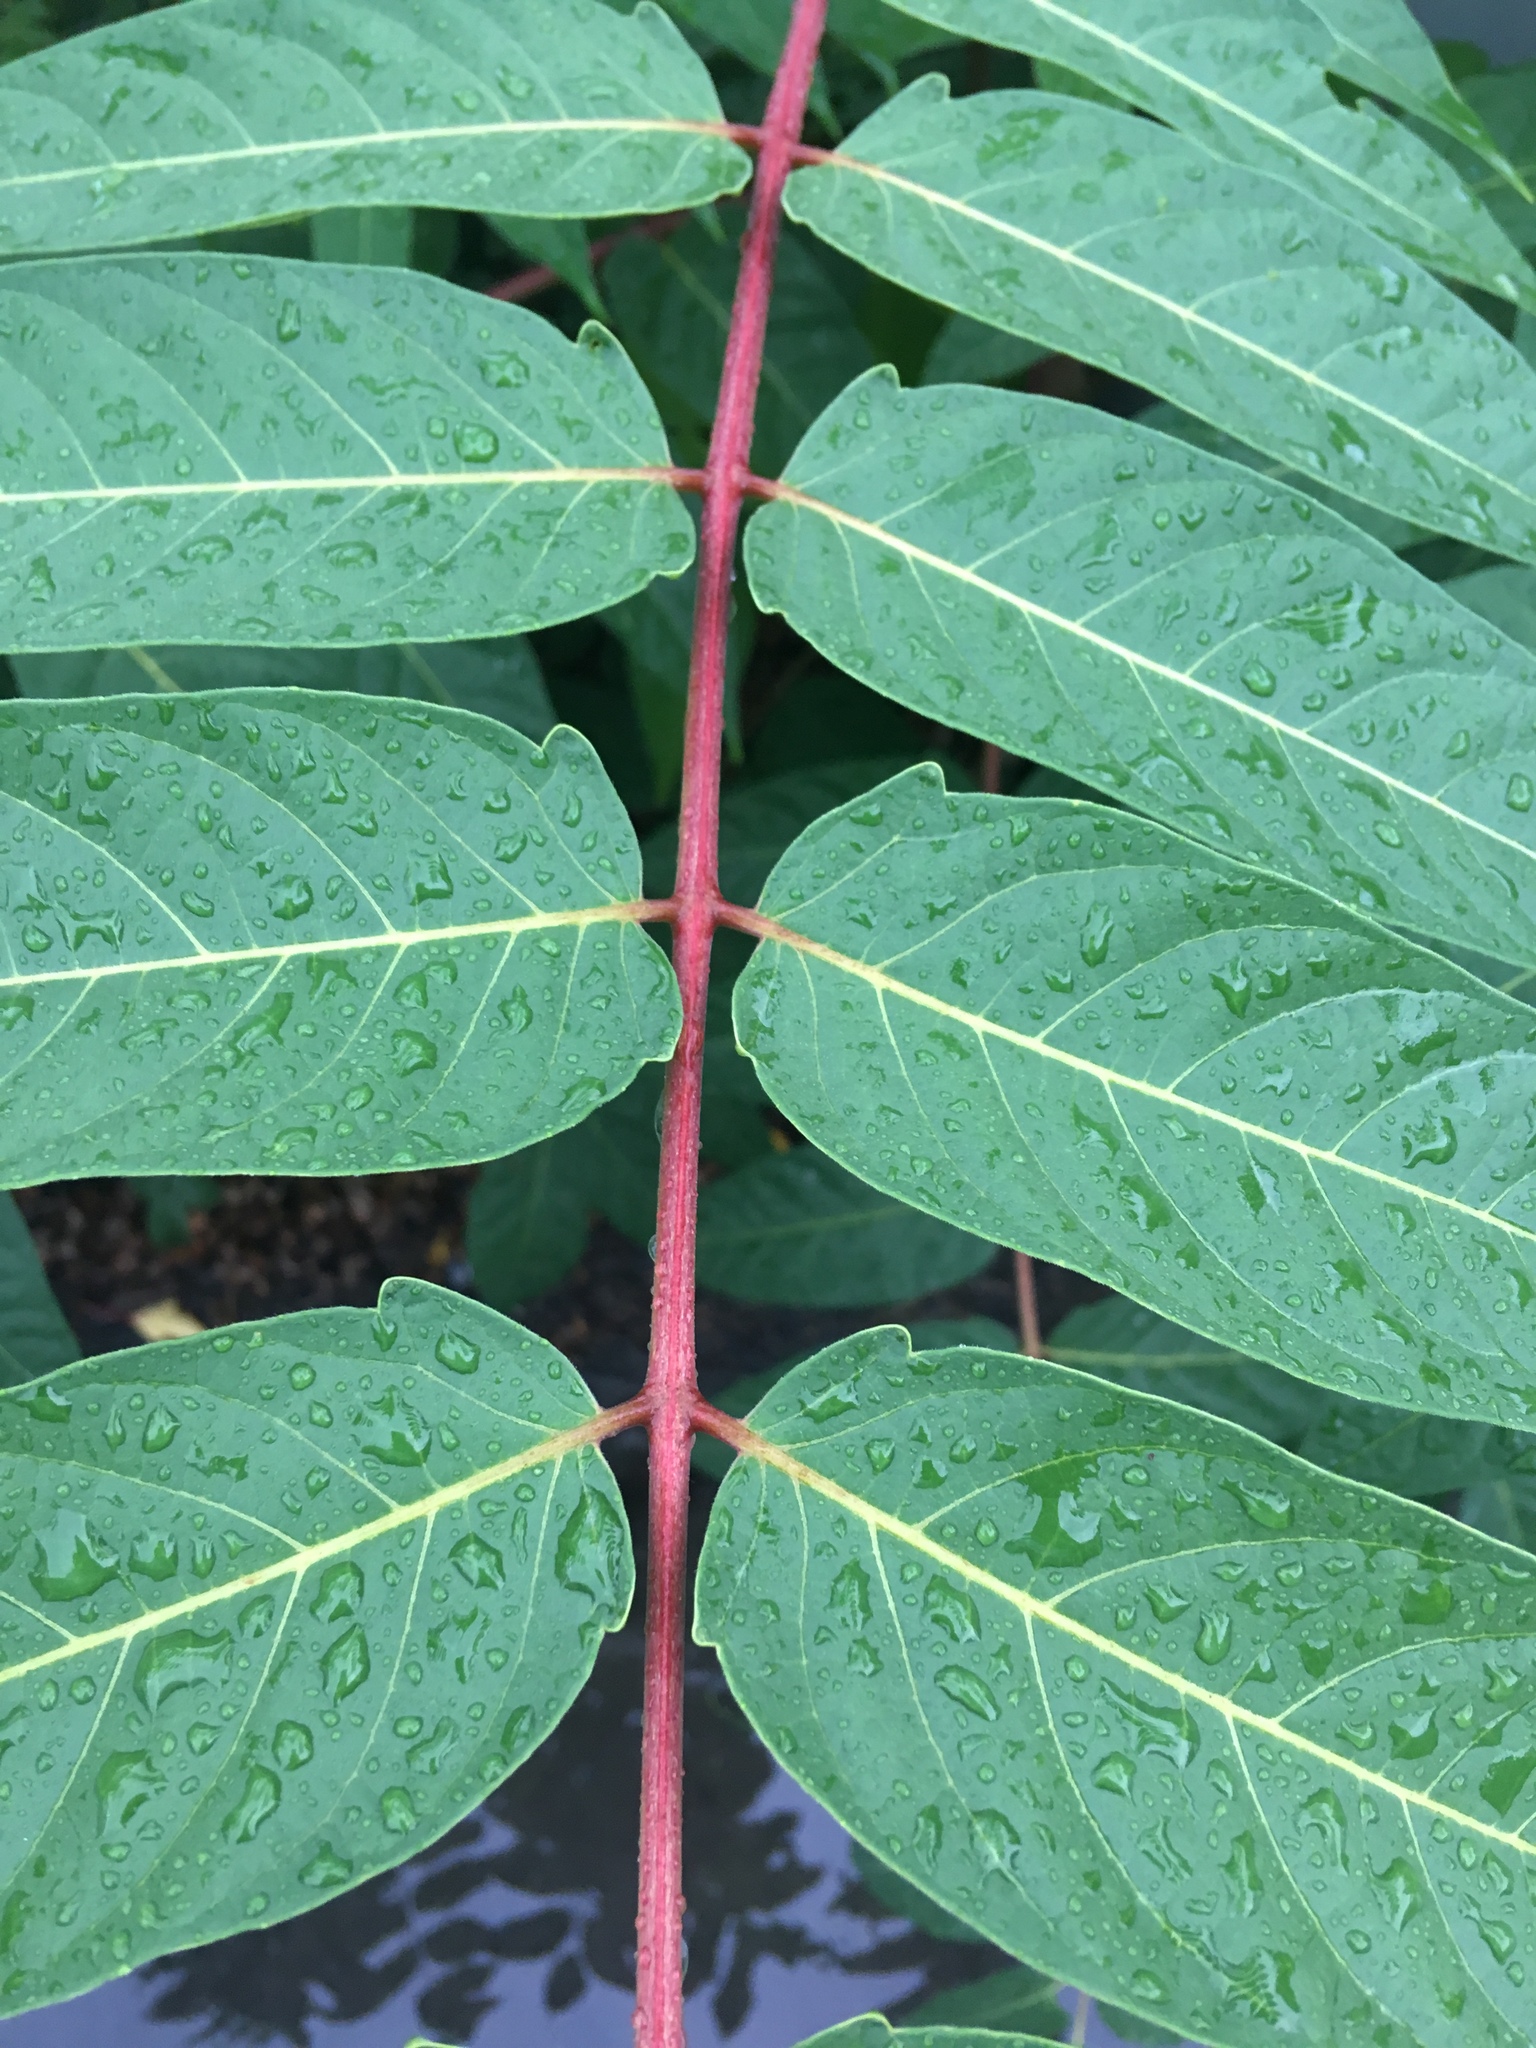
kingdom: Plantae
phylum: Tracheophyta
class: Magnoliopsida
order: Sapindales
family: Simaroubaceae
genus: Ailanthus
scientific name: Ailanthus altissima
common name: Tree-of-heaven
